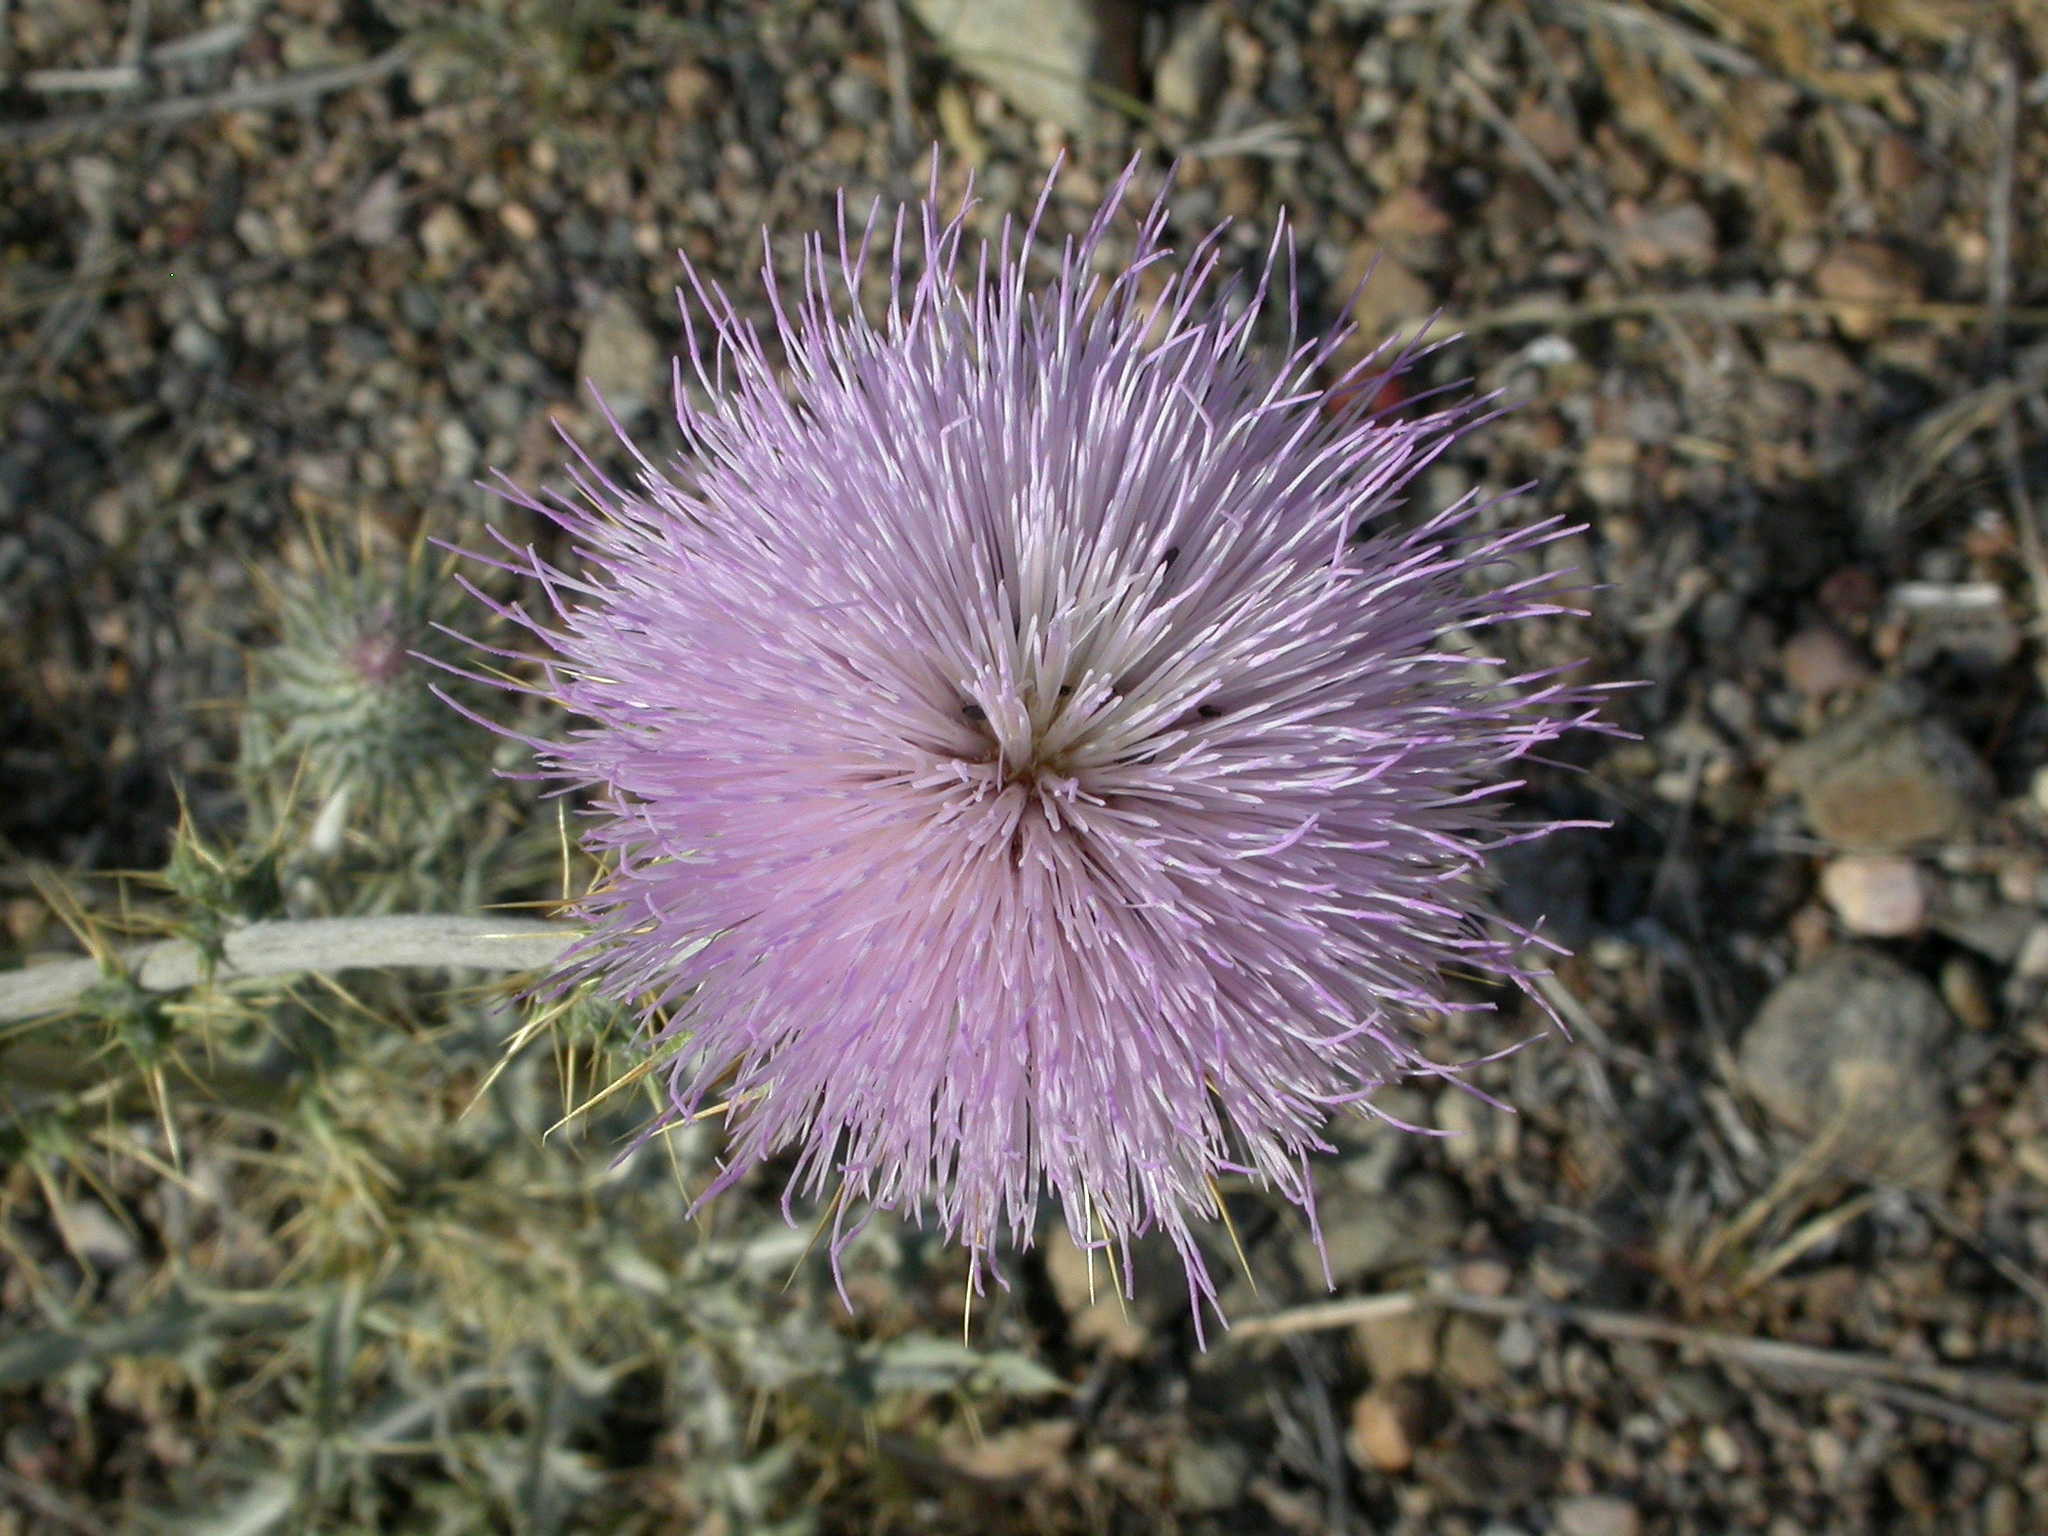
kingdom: Plantae
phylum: Tracheophyta
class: Magnoliopsida
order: Asterales
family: Asteraceae
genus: Cirsium
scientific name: Cirsium neomexicanum
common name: New mexico thistle
